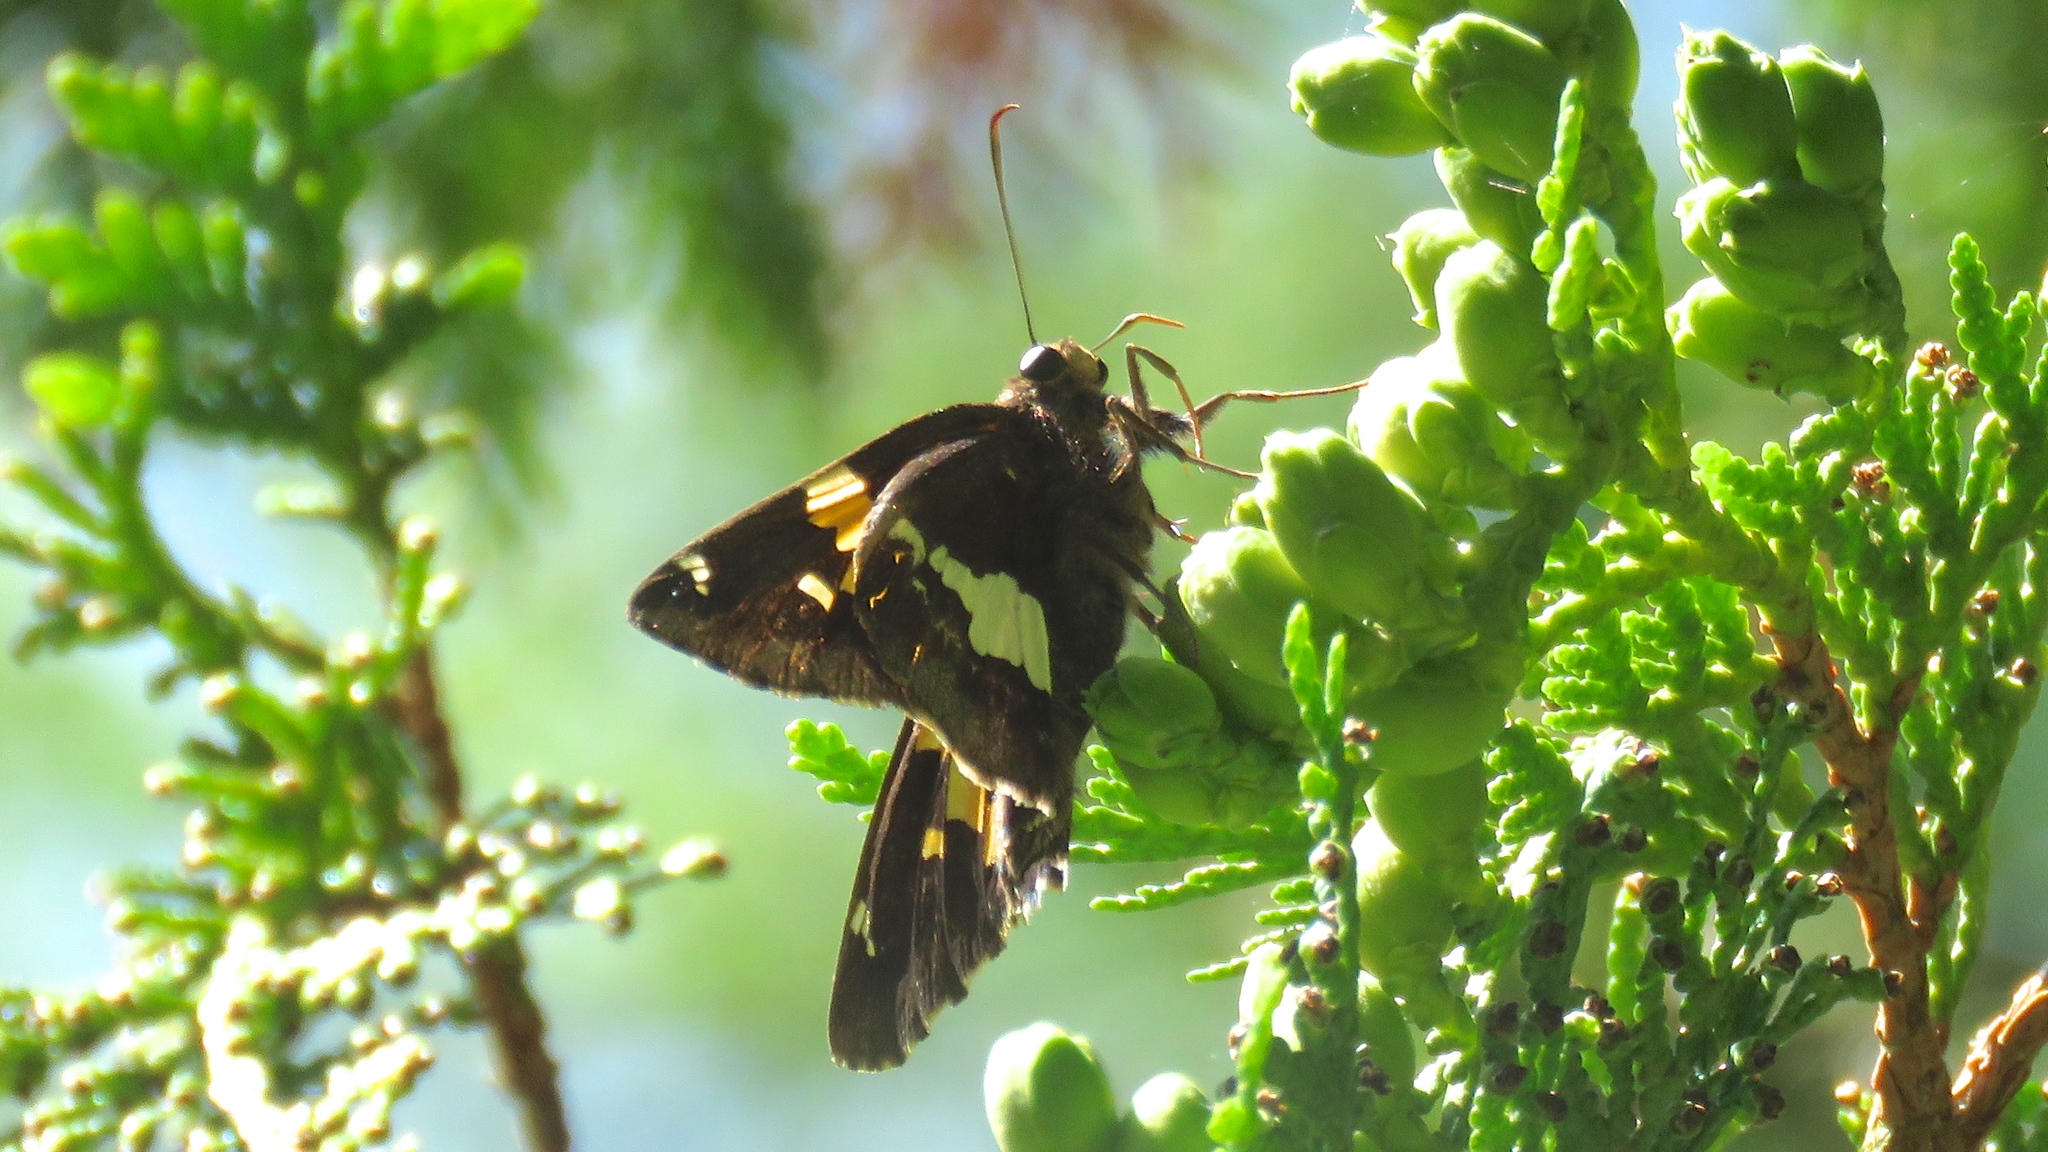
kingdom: Animalia
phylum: Arthropoda
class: Insecta
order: Lepidoptera
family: Hesperiidae
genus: Epargyreus
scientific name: Epargyreus clarus
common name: Silver-spotted skipper
